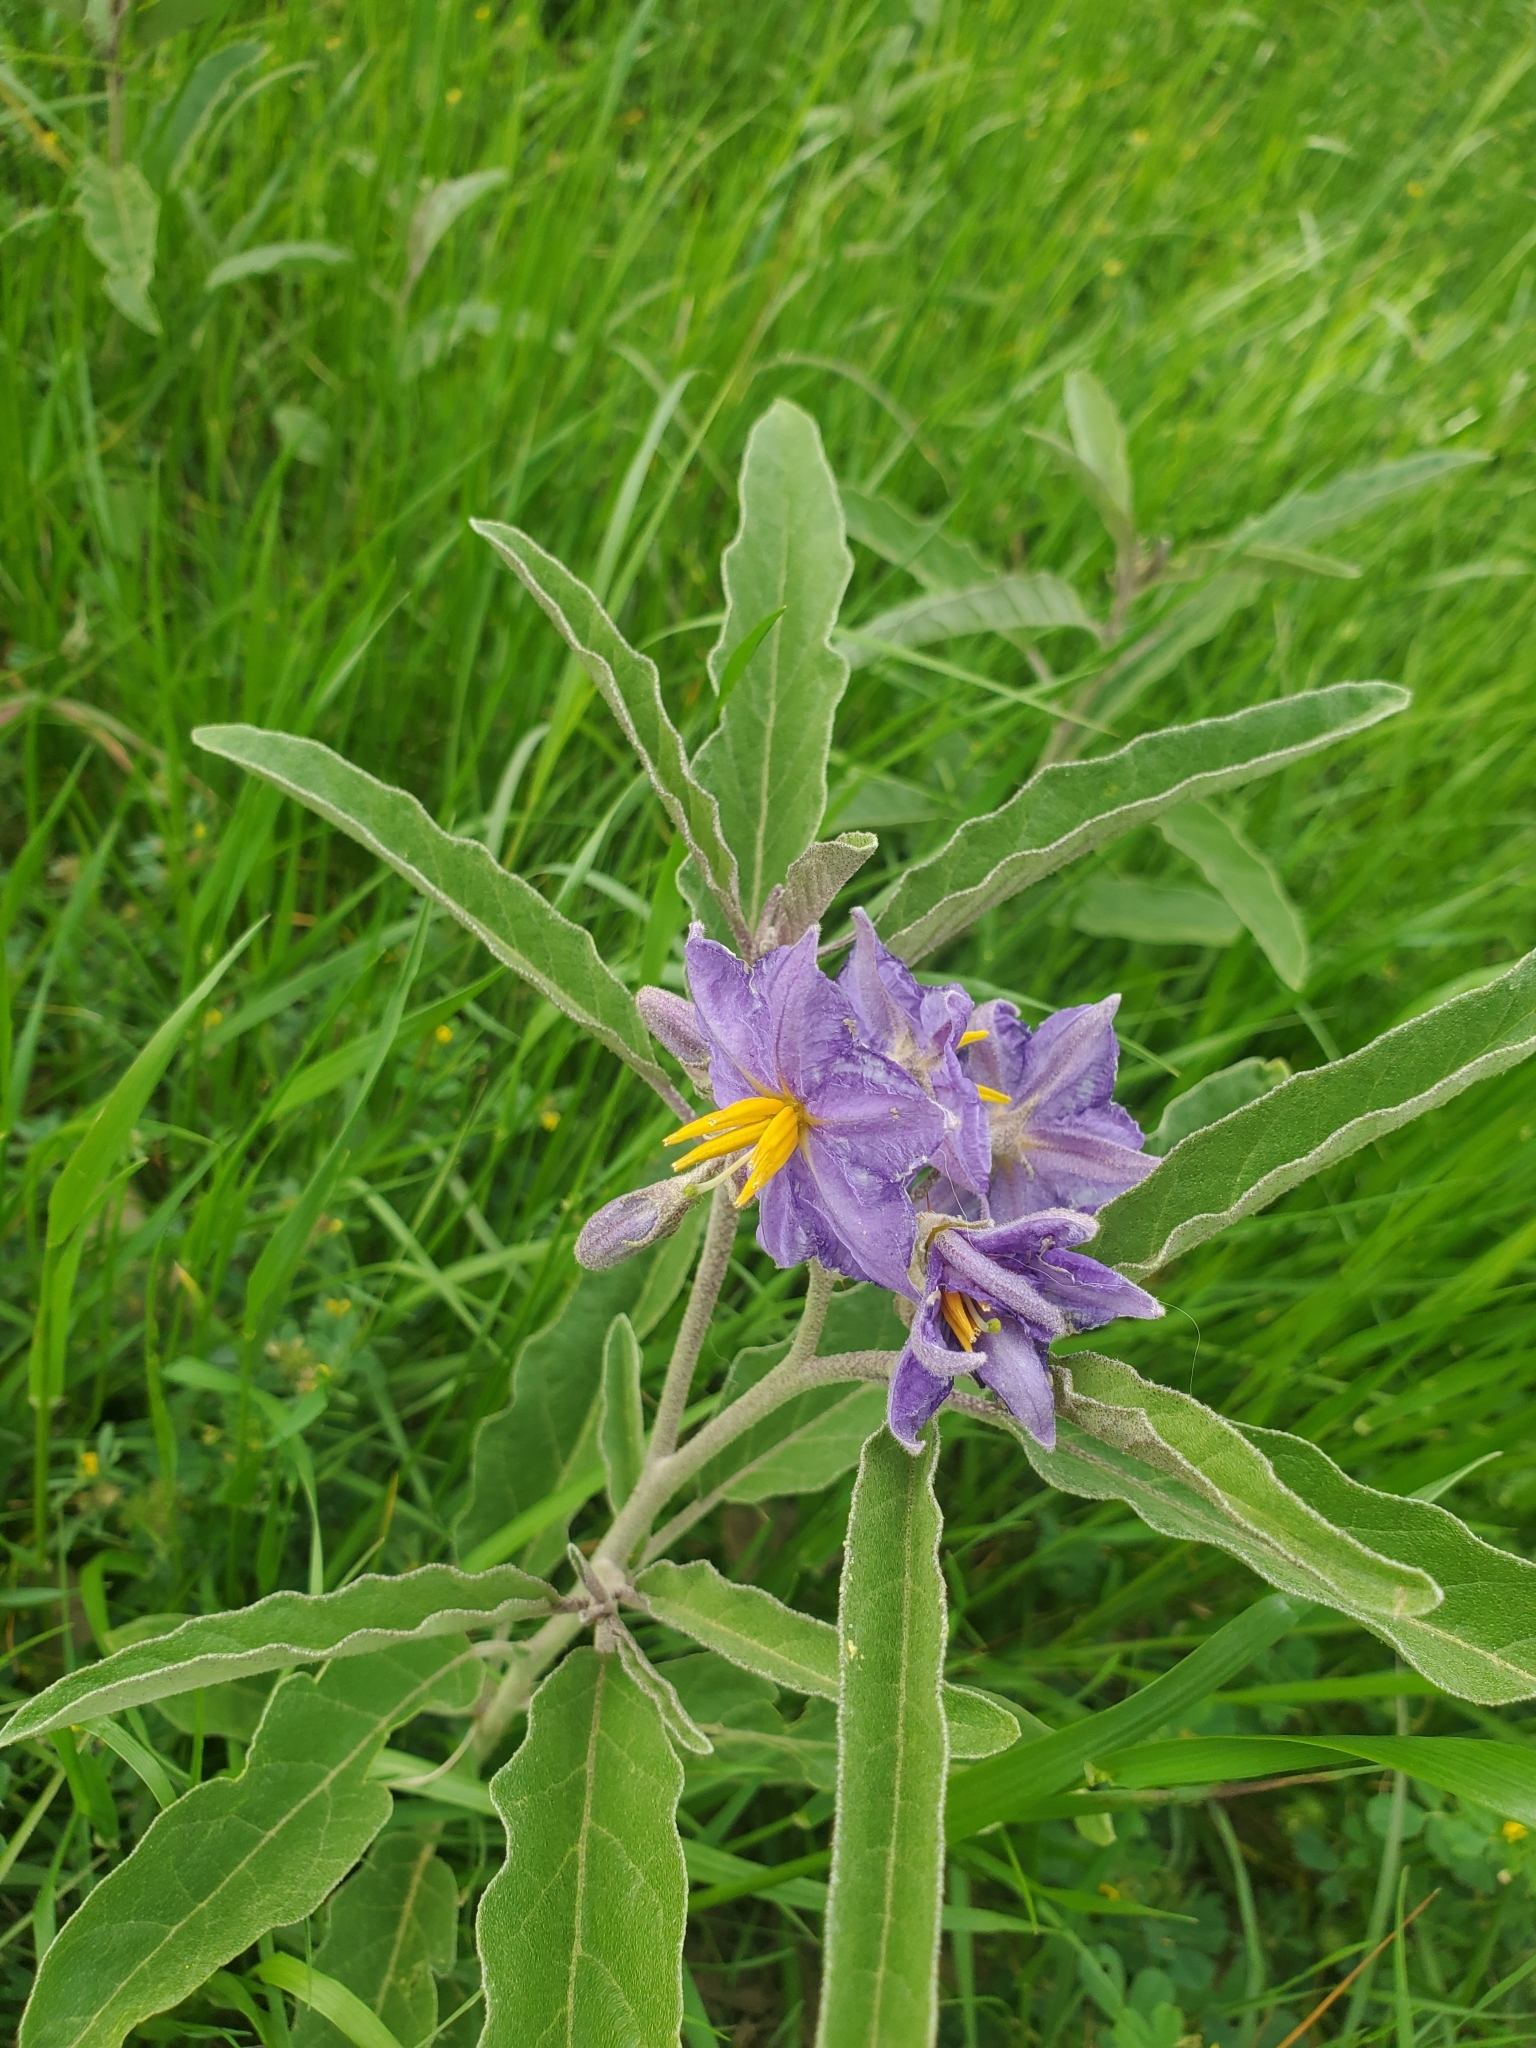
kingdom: Plantae
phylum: Tracheophyta
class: Magnoliopsida
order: Solanales
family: Solanaceae
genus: Solanum
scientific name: Solanum elaeagnifolium
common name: Silverleaf nightshade
